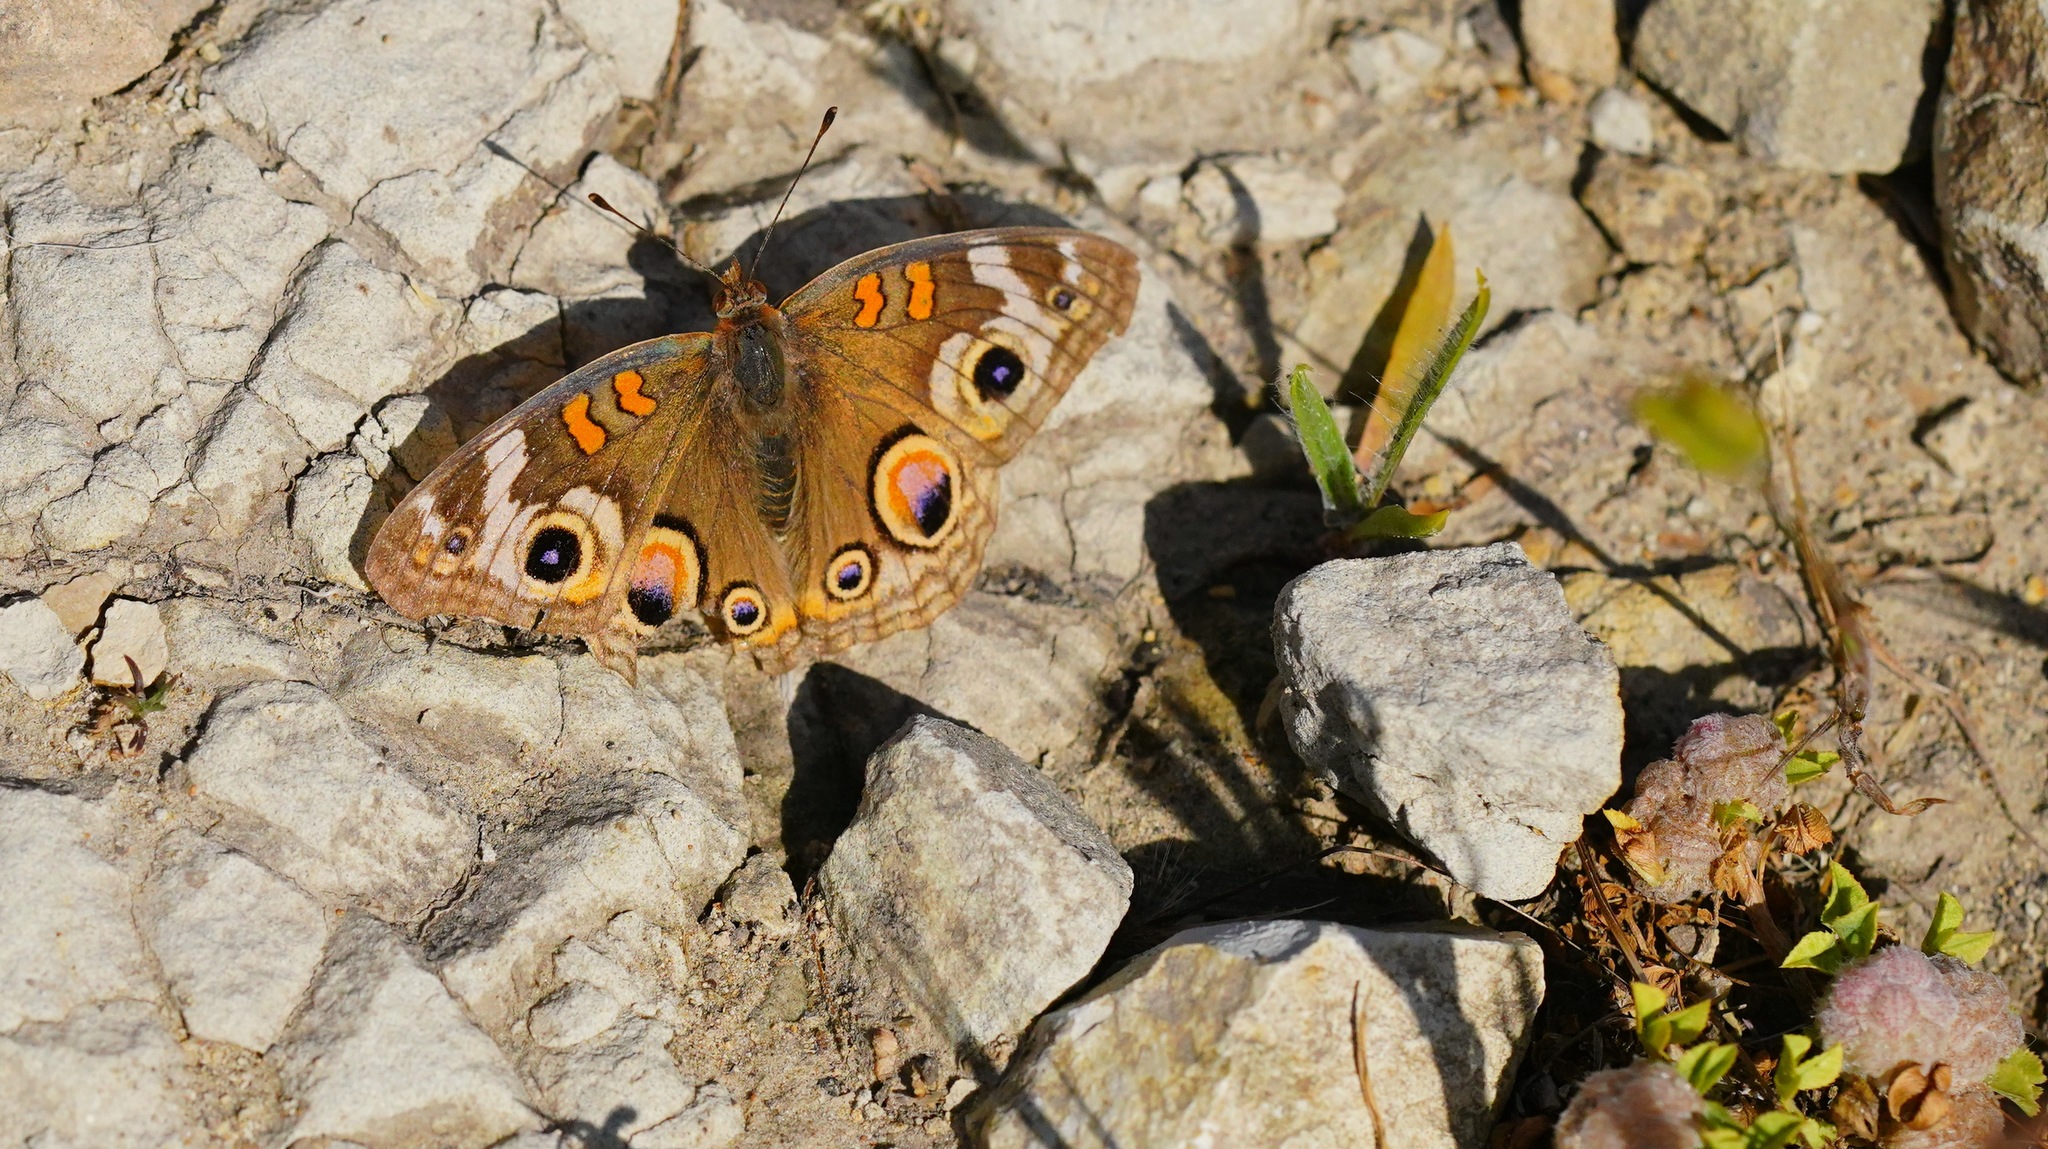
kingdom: Animalia
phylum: Arthropoda
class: Insecta
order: Lepidoptera
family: Nymphalidae
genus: Junonia
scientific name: Junonia grisea
